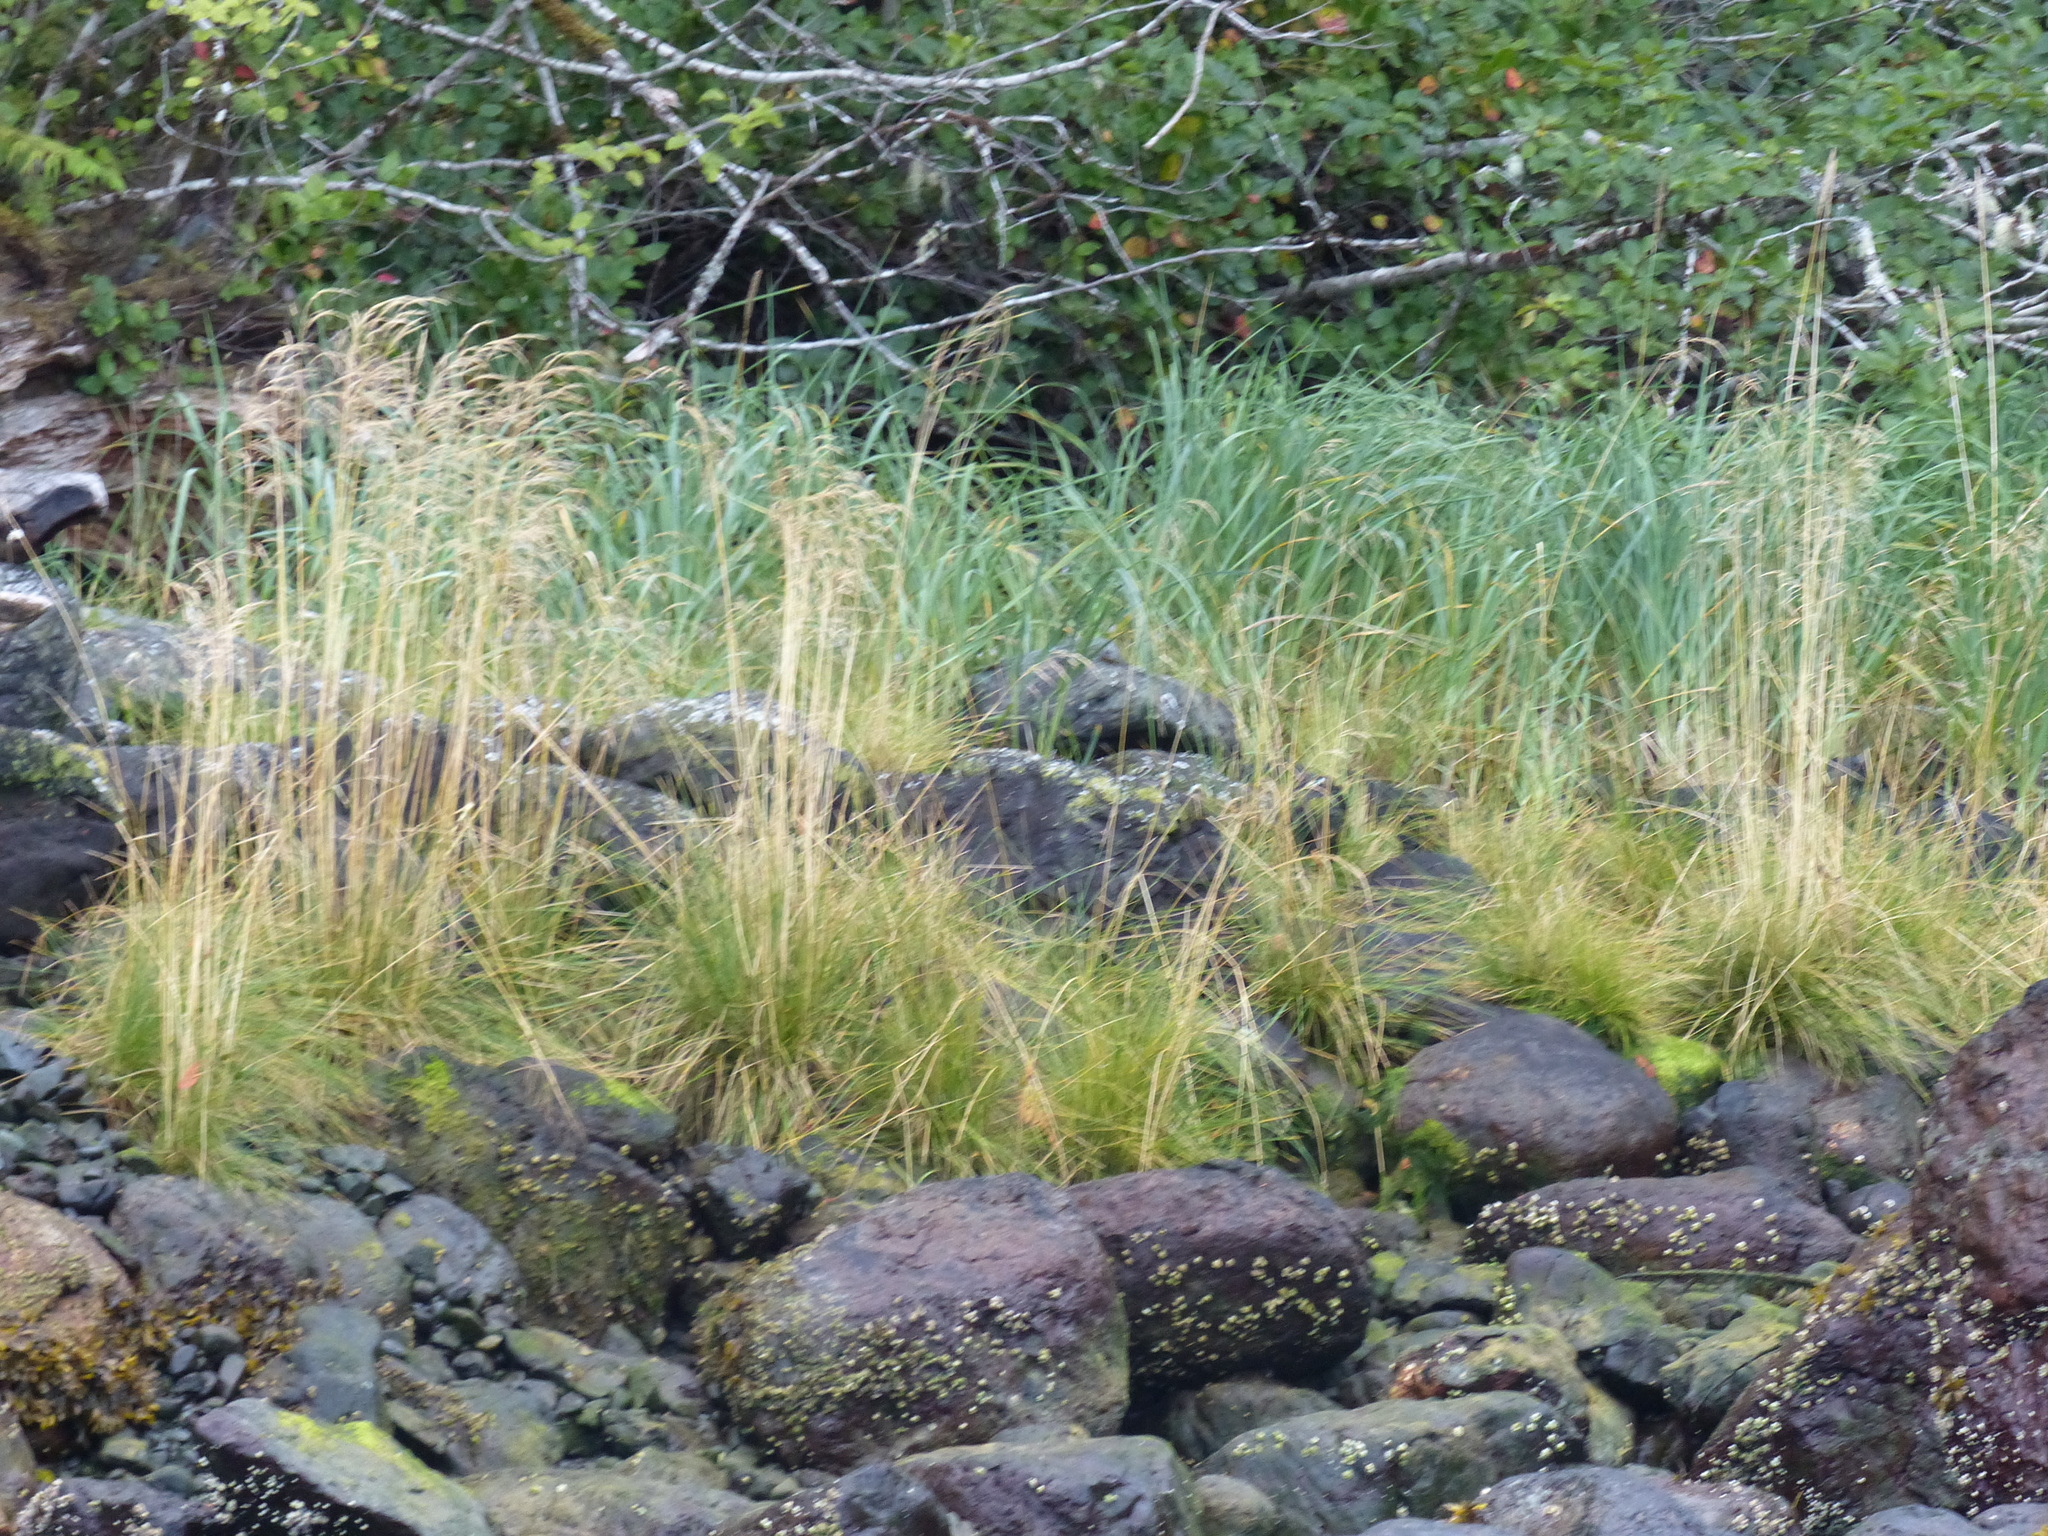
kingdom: Plantae
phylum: Tracheophyta
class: Liliopsida
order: Poales
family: Poaceae
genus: Deschampsia
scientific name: Deschampsia cespitosa
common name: Tufted hair-grass
